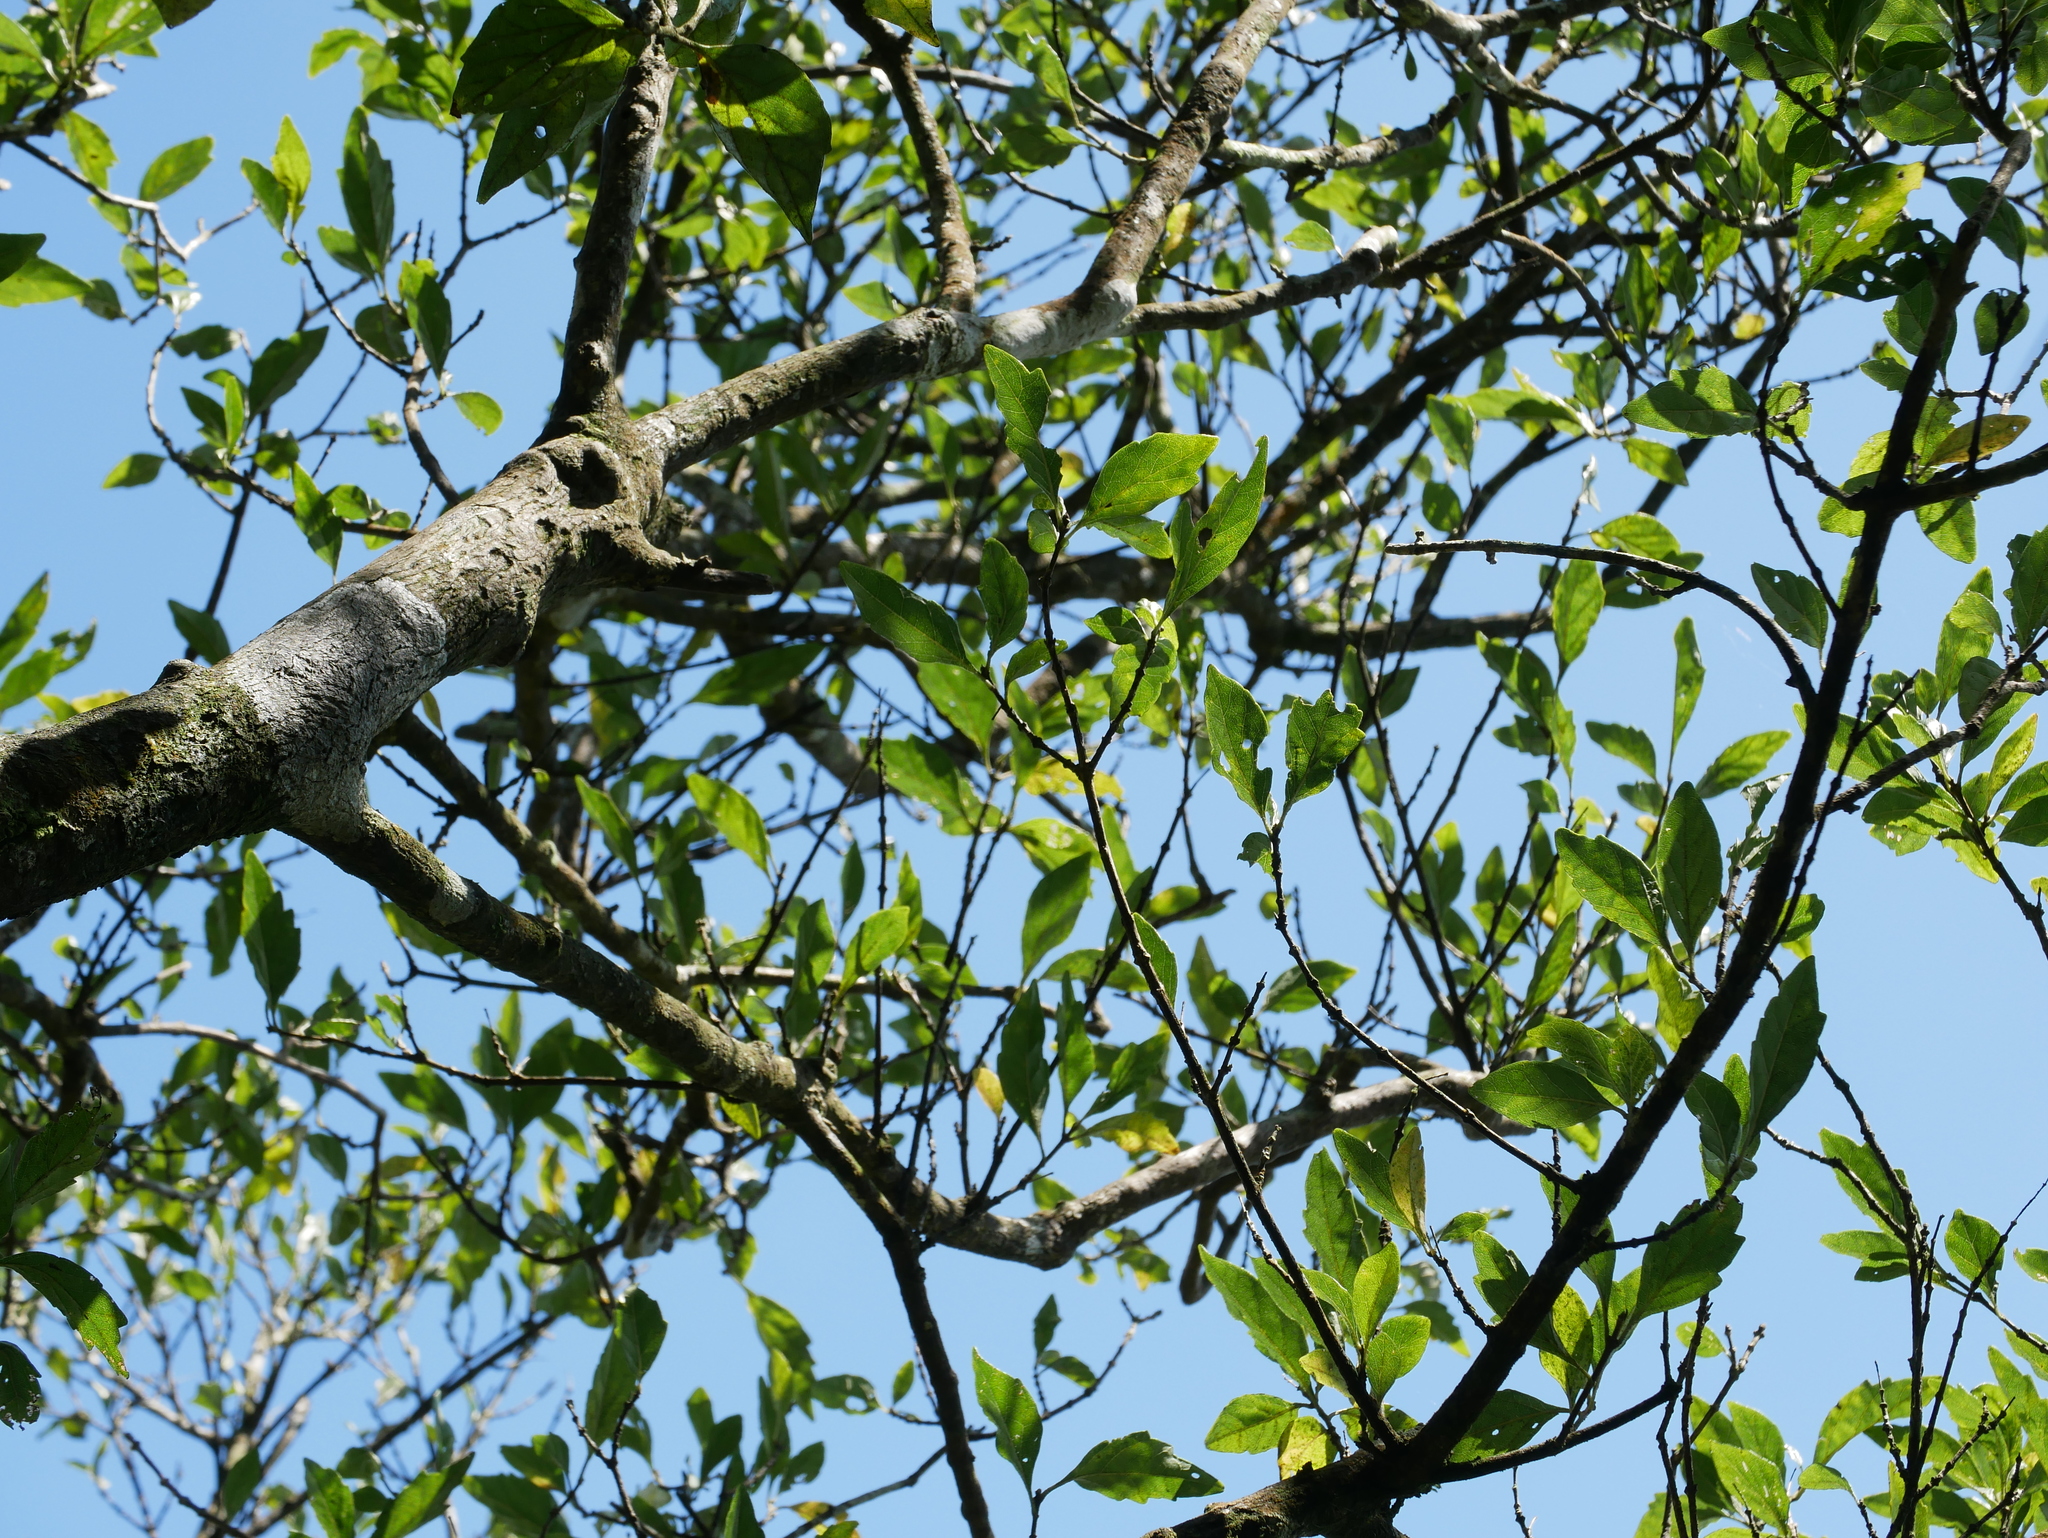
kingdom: Plantae
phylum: Tracheophyta
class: Magnoliopsida
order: Lamiales
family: Lamiaceae
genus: Premna
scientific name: Premna microphylla
